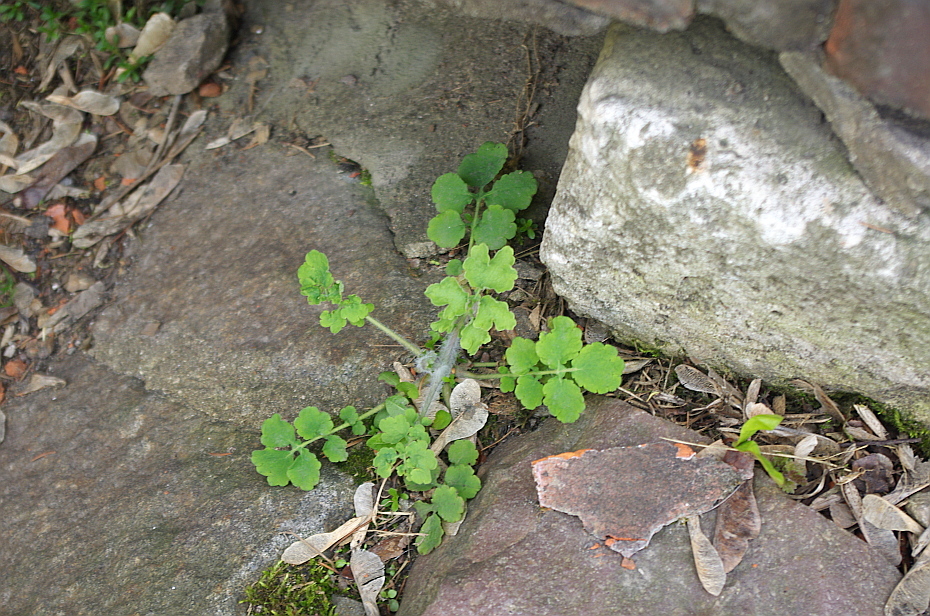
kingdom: Plantae
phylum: Tracheophyta
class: Magnoliopsida
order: Ranunculales
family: Papaveraceae
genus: Chelidonium
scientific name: Chelidonium majus
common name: Greater celandine
